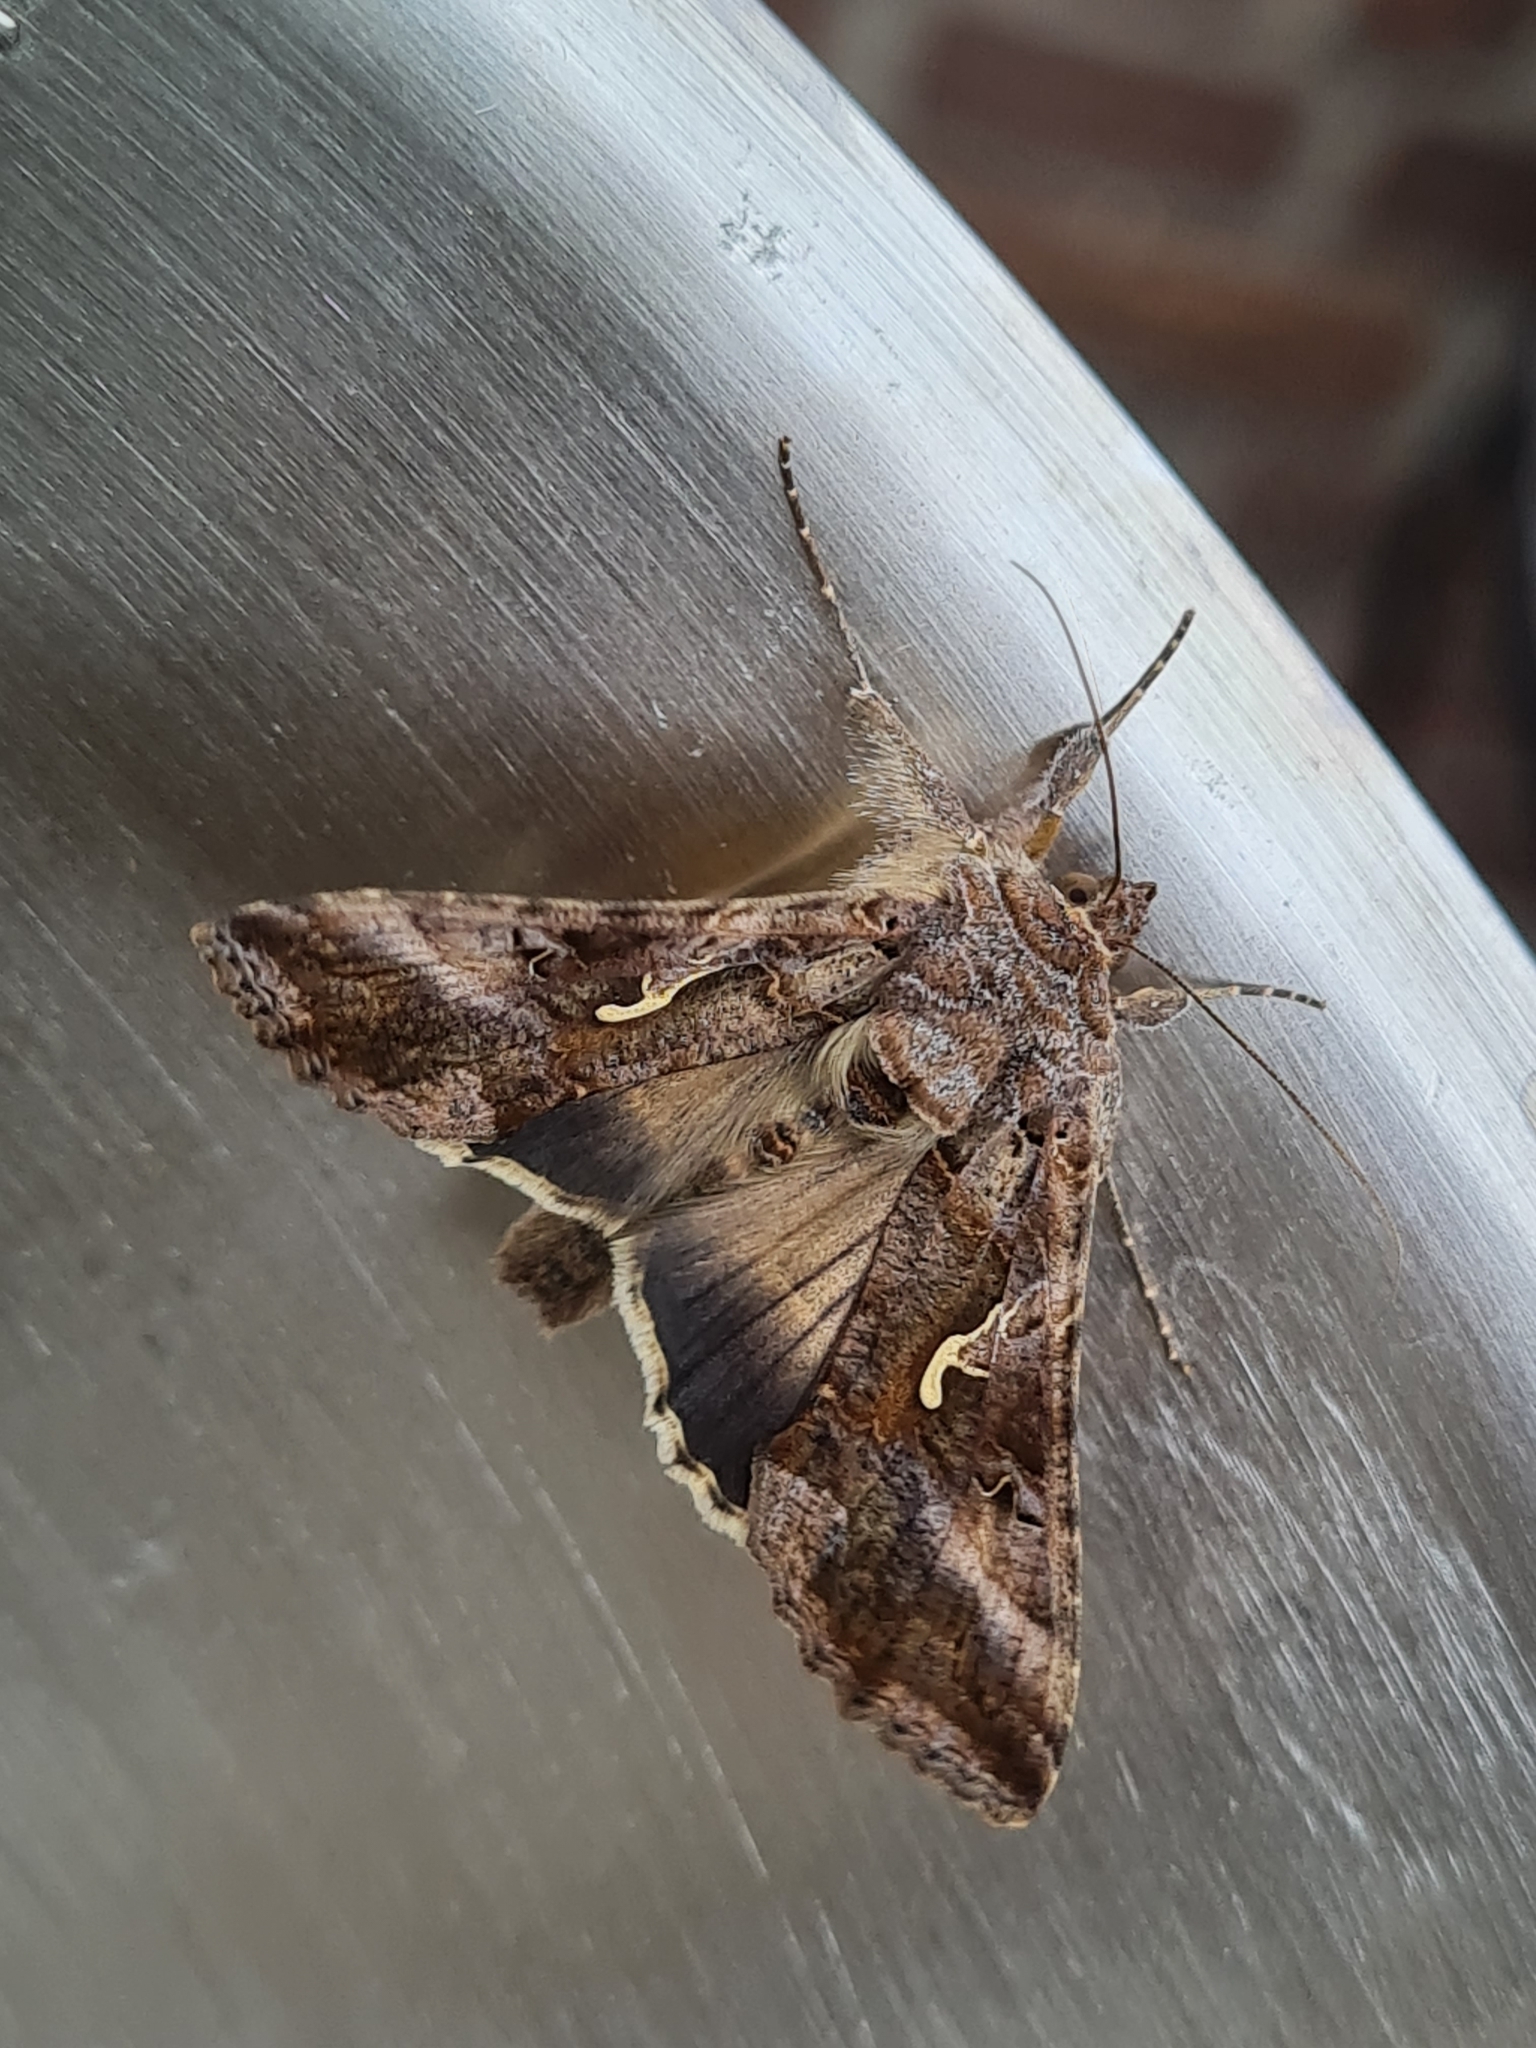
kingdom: Animalia
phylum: Arthropoda
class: Insecta
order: Lepidoptera
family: Noctuidae
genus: Autographa
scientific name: Autographa gamma
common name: Silver y
